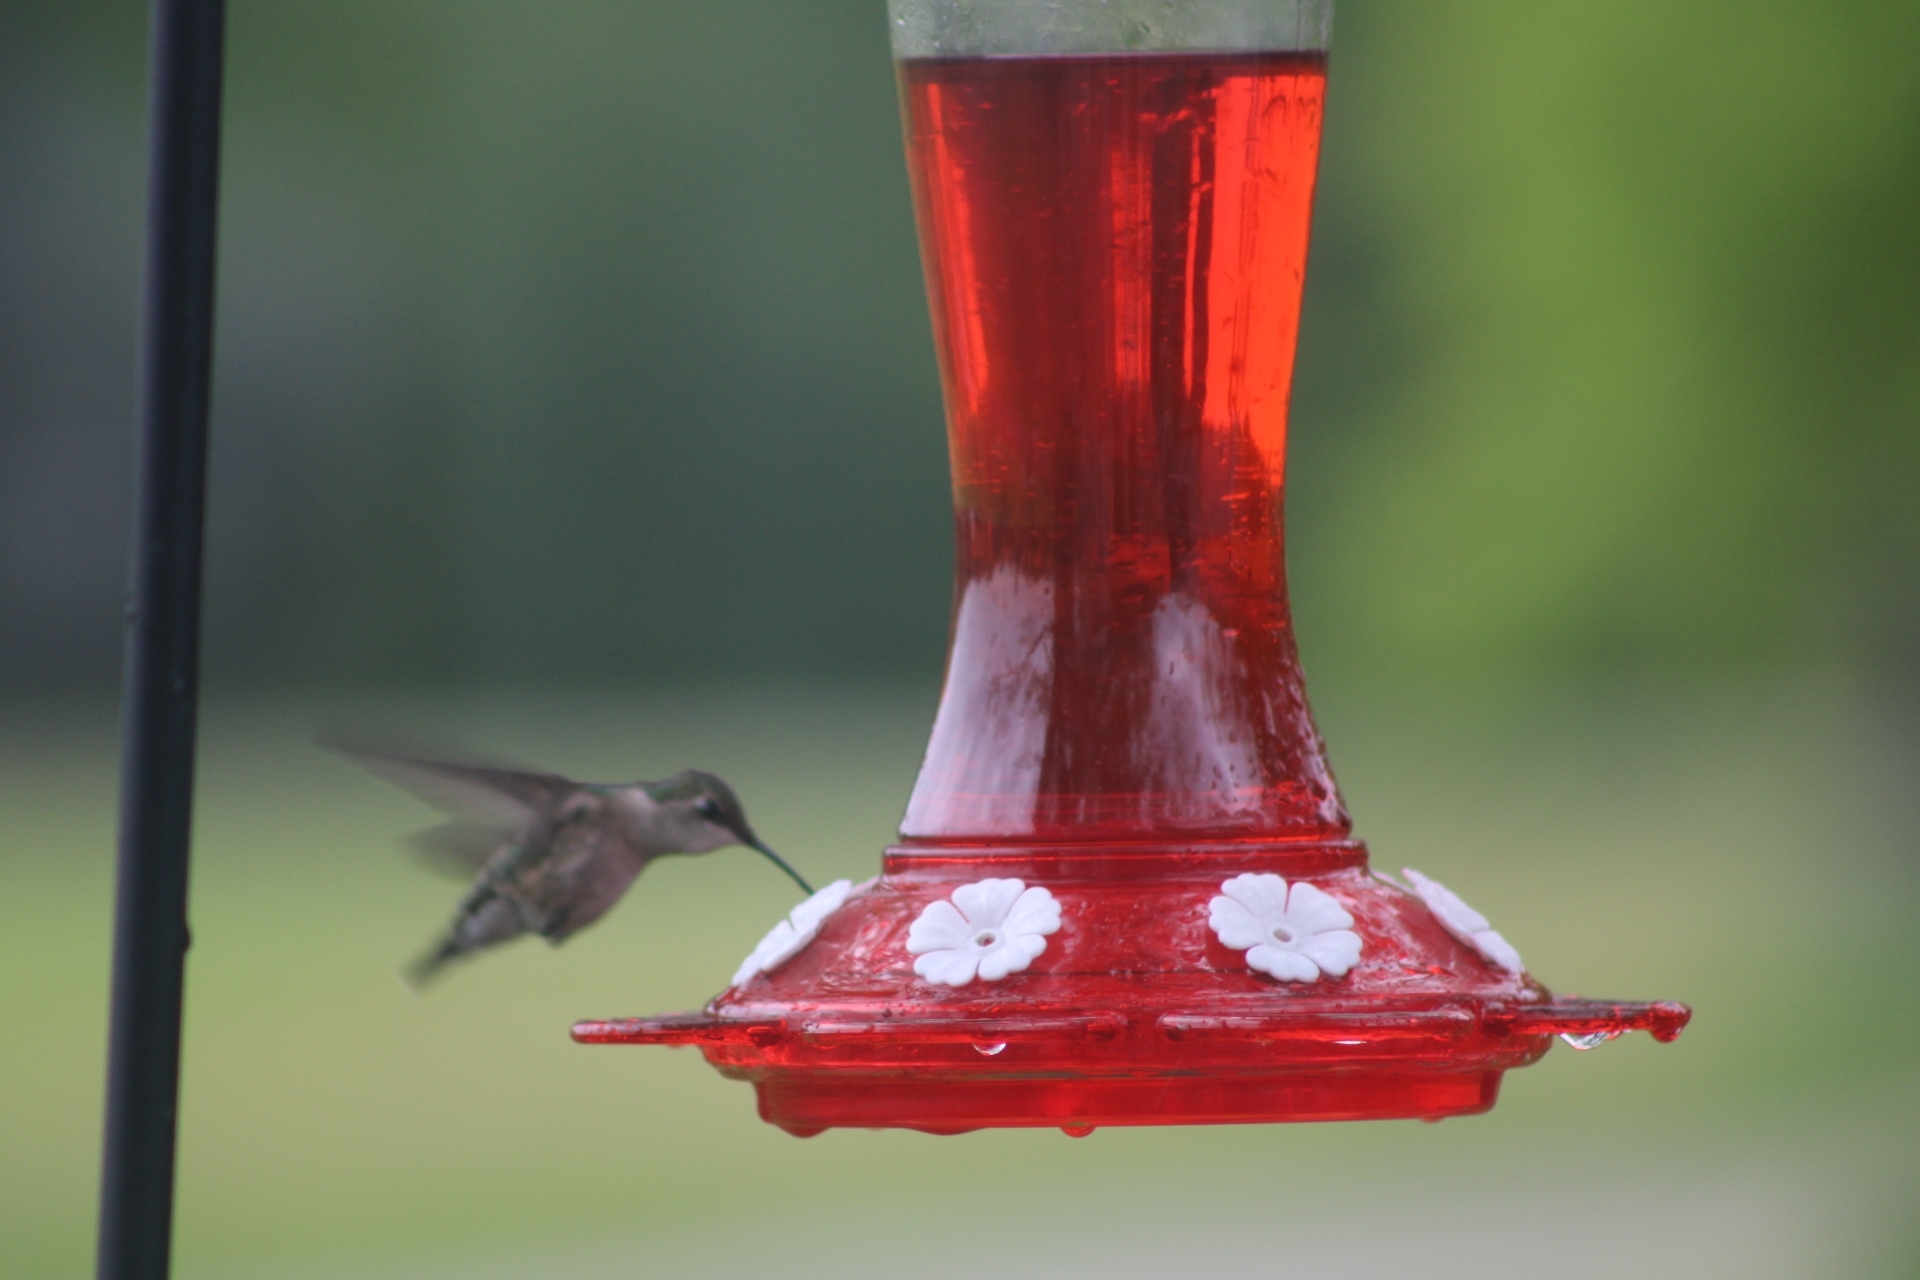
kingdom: Animalia
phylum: Chordata
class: Aves
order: Apodiformes
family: Trochilidae
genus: Archilochus
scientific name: Archilochus colubris
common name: Ruby-throated hummingbird
